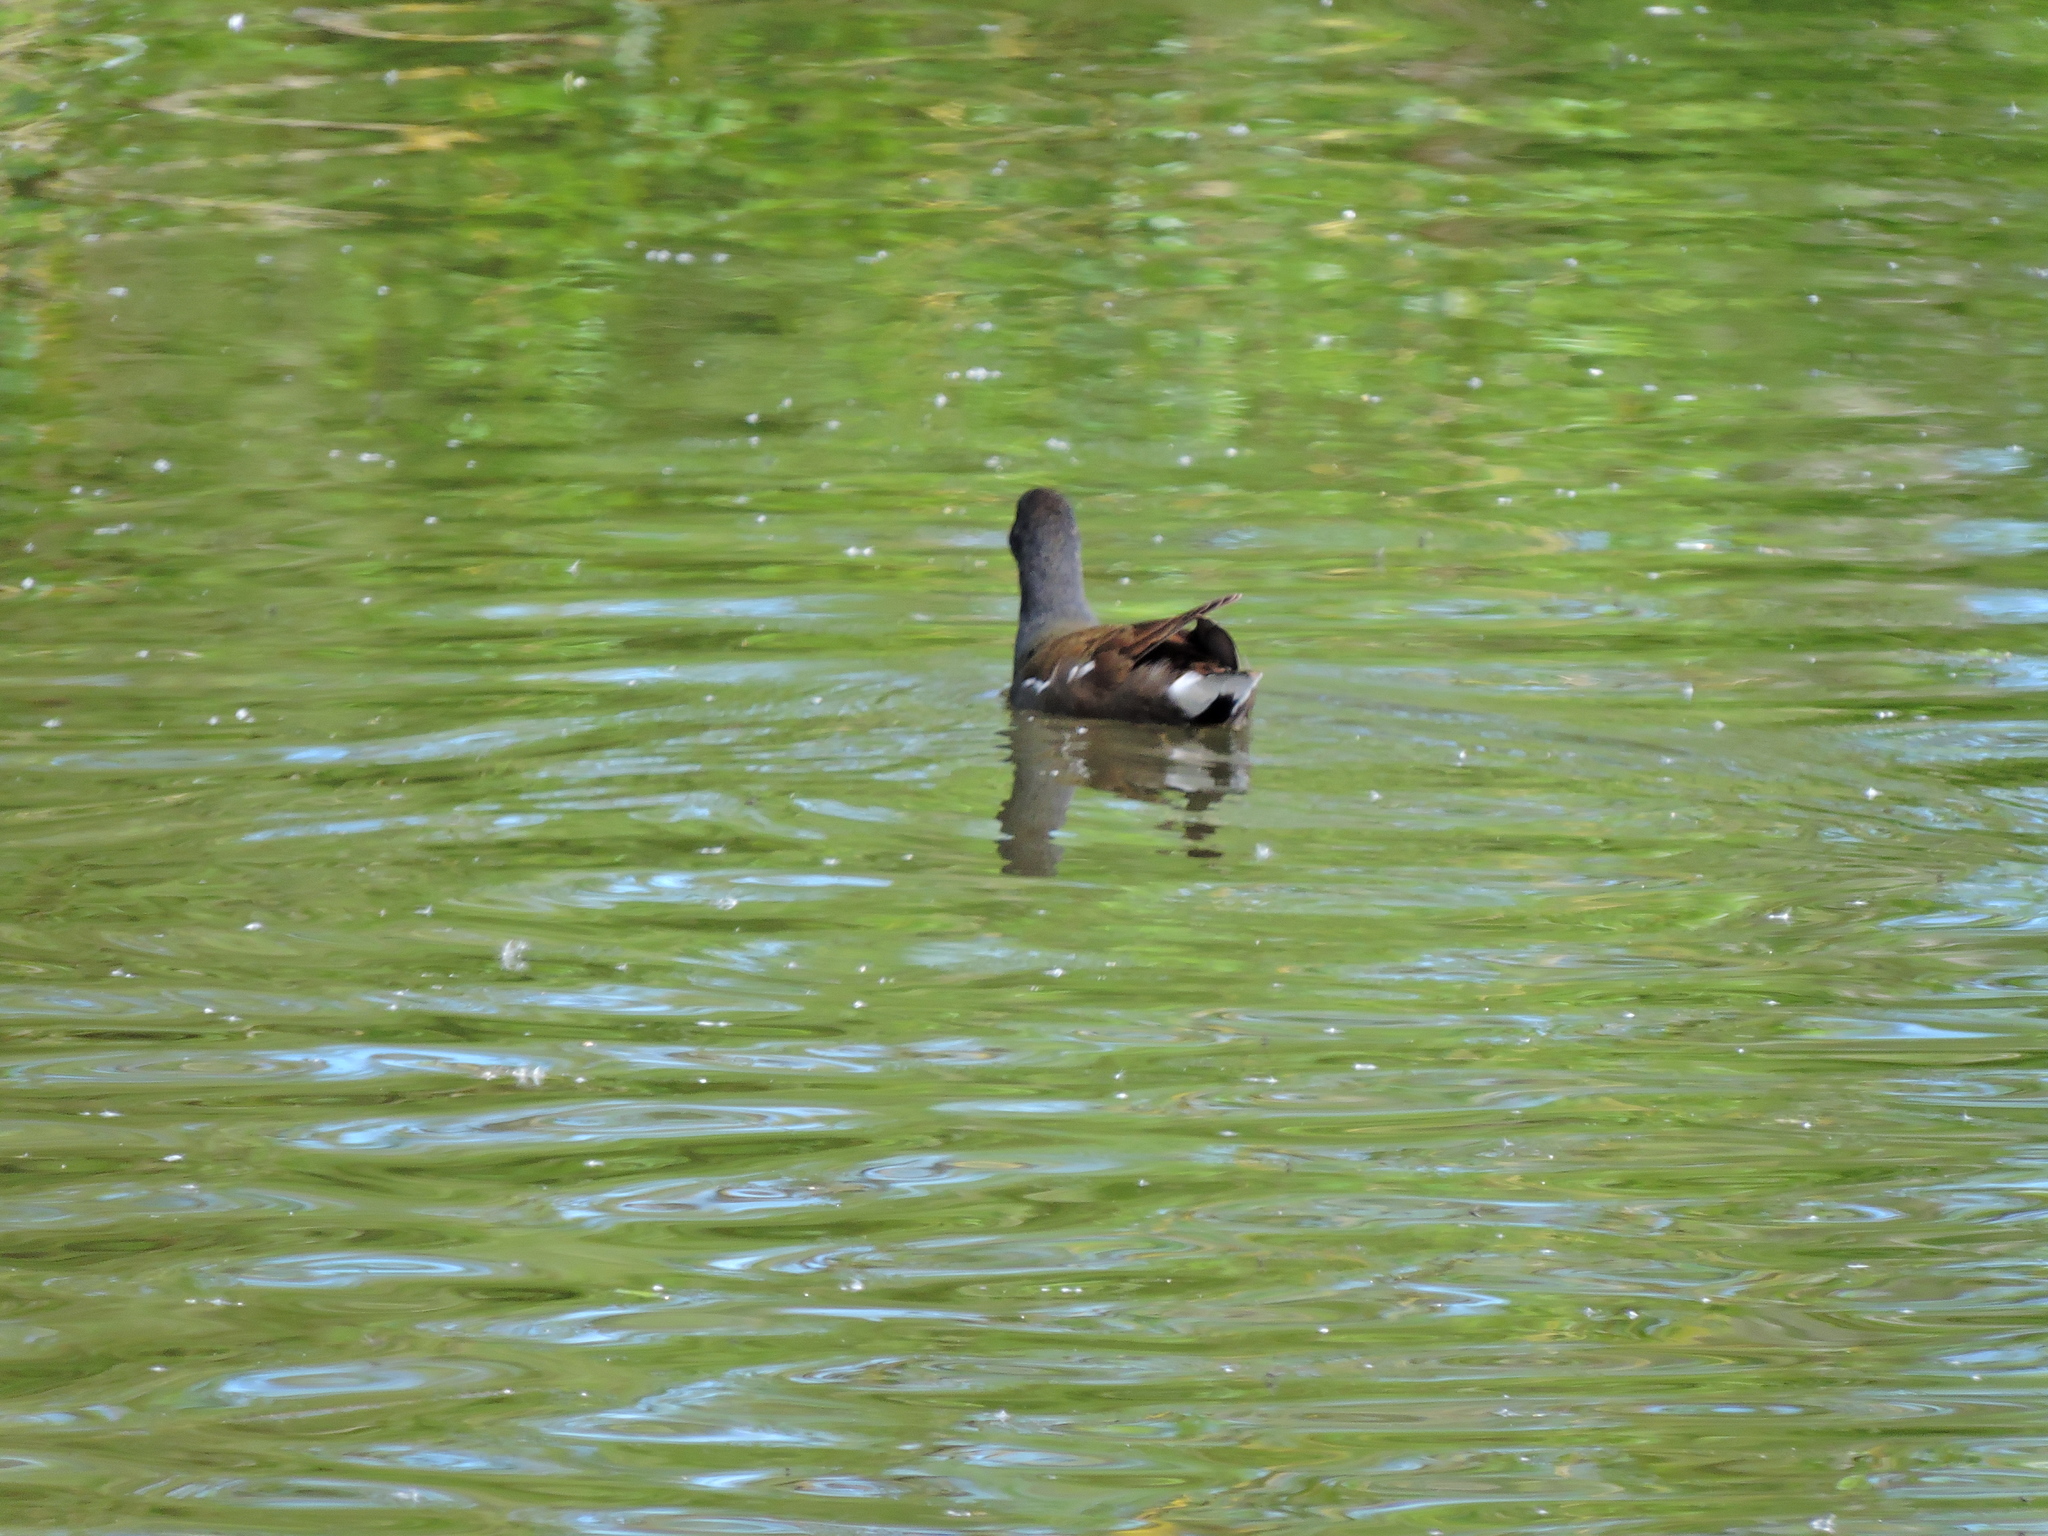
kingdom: Animalia
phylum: Chordata
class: Aves
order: Gruiformes
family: Rallidae
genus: Gallinula
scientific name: Gallinula chloropus
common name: Common moorhen
